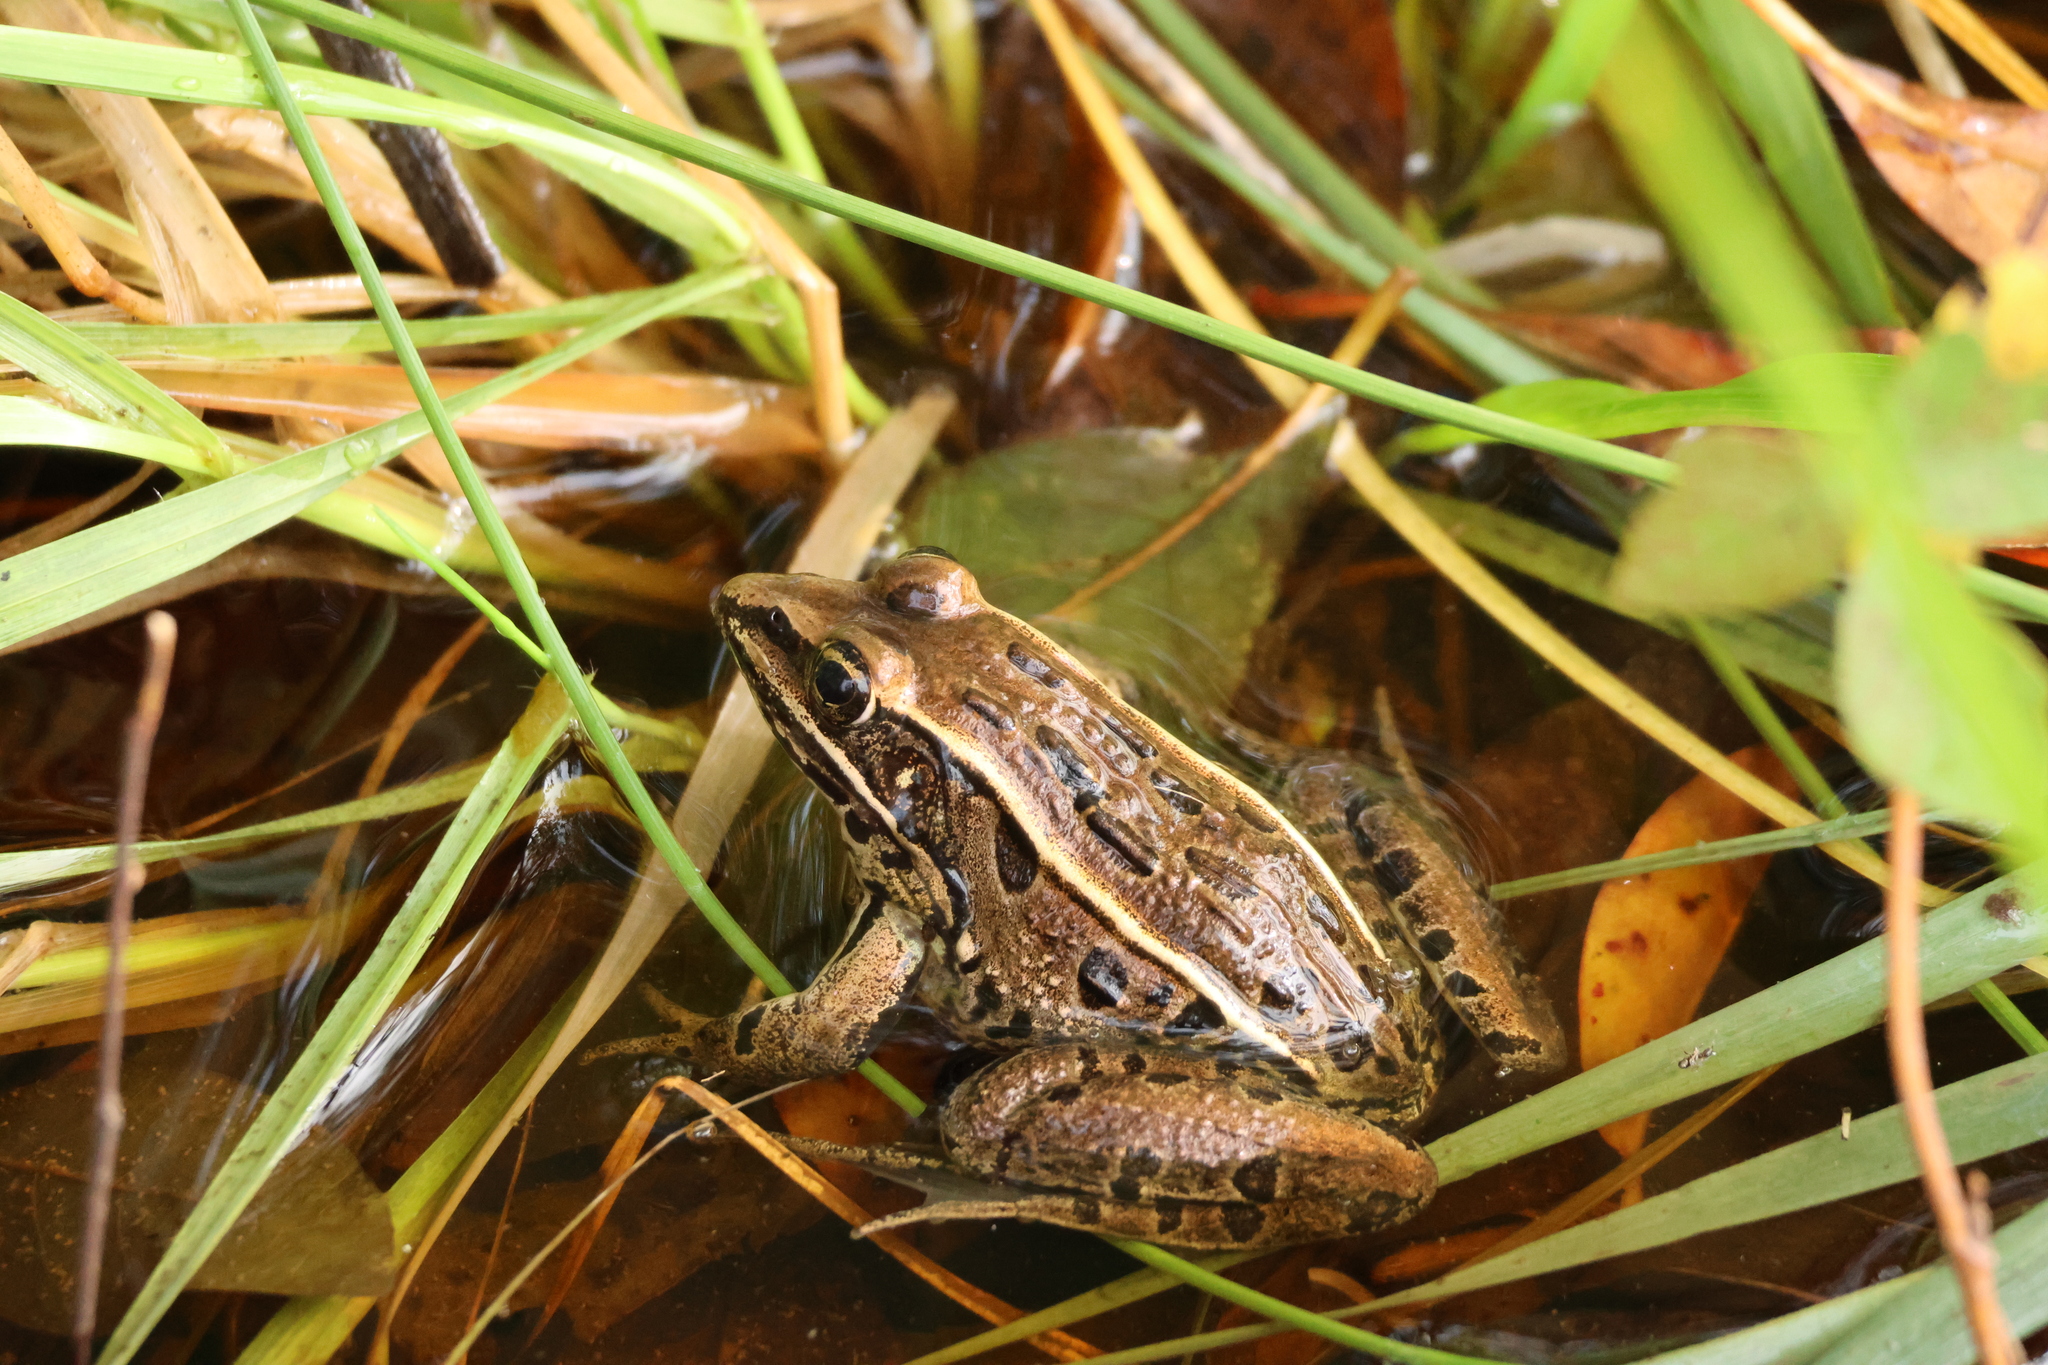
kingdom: Animalia
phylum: Chordata
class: Amphibia
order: Anura
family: Ranidae
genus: Lithobates
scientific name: Lithobates sphenocephalus
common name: Southern leopard frog
